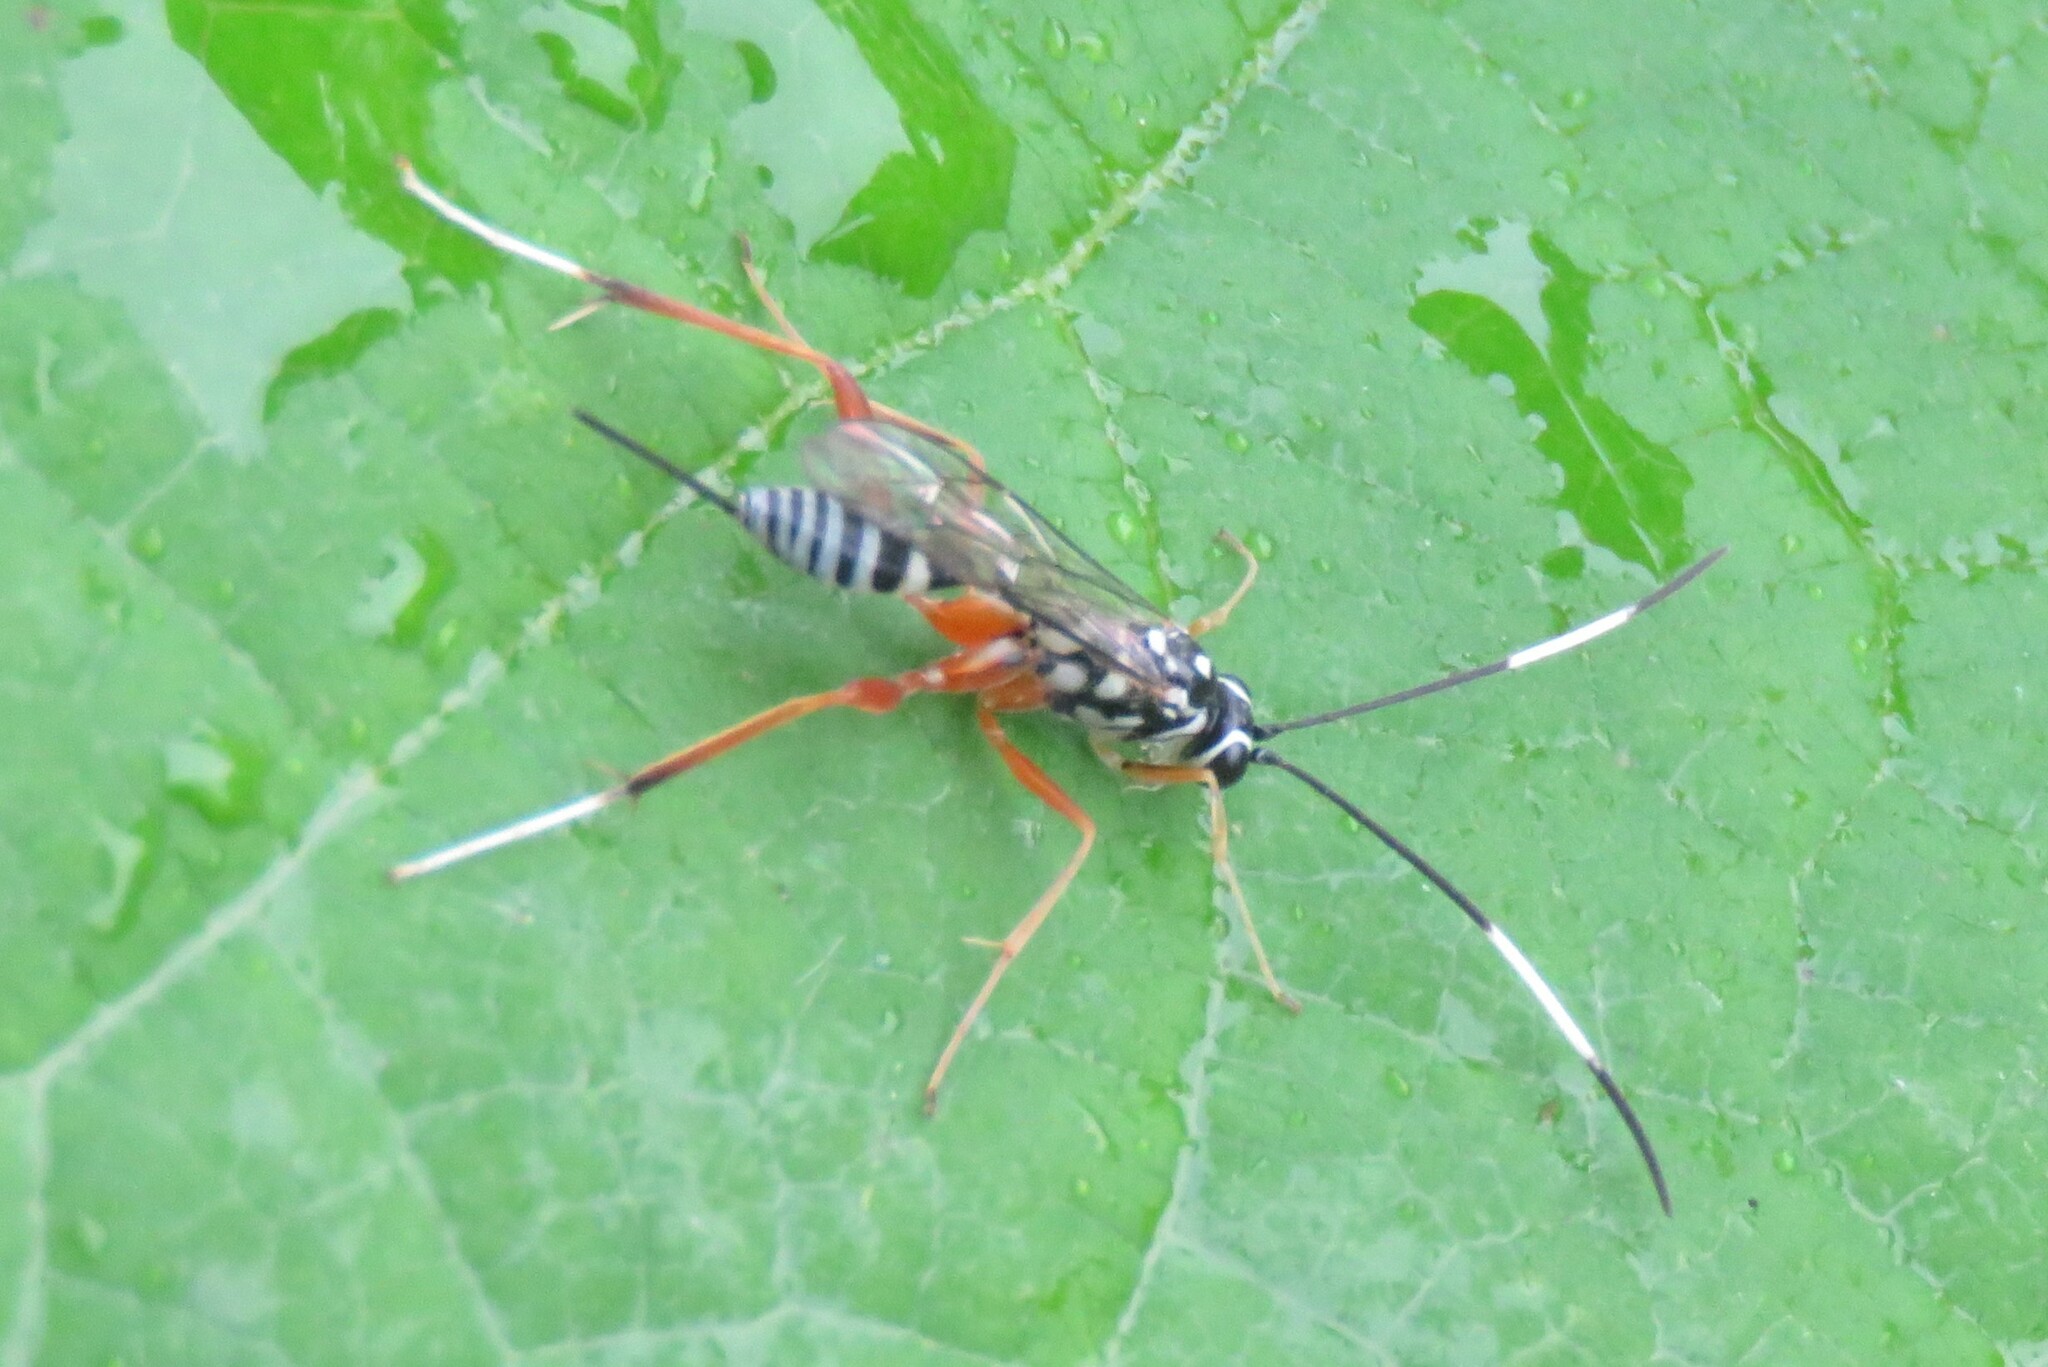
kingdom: Animalia
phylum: Arthropoda
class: Insecta
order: Hymenoptera
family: Ichneumonidae
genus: Messatoporus
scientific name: Messatoporus discoidalis
